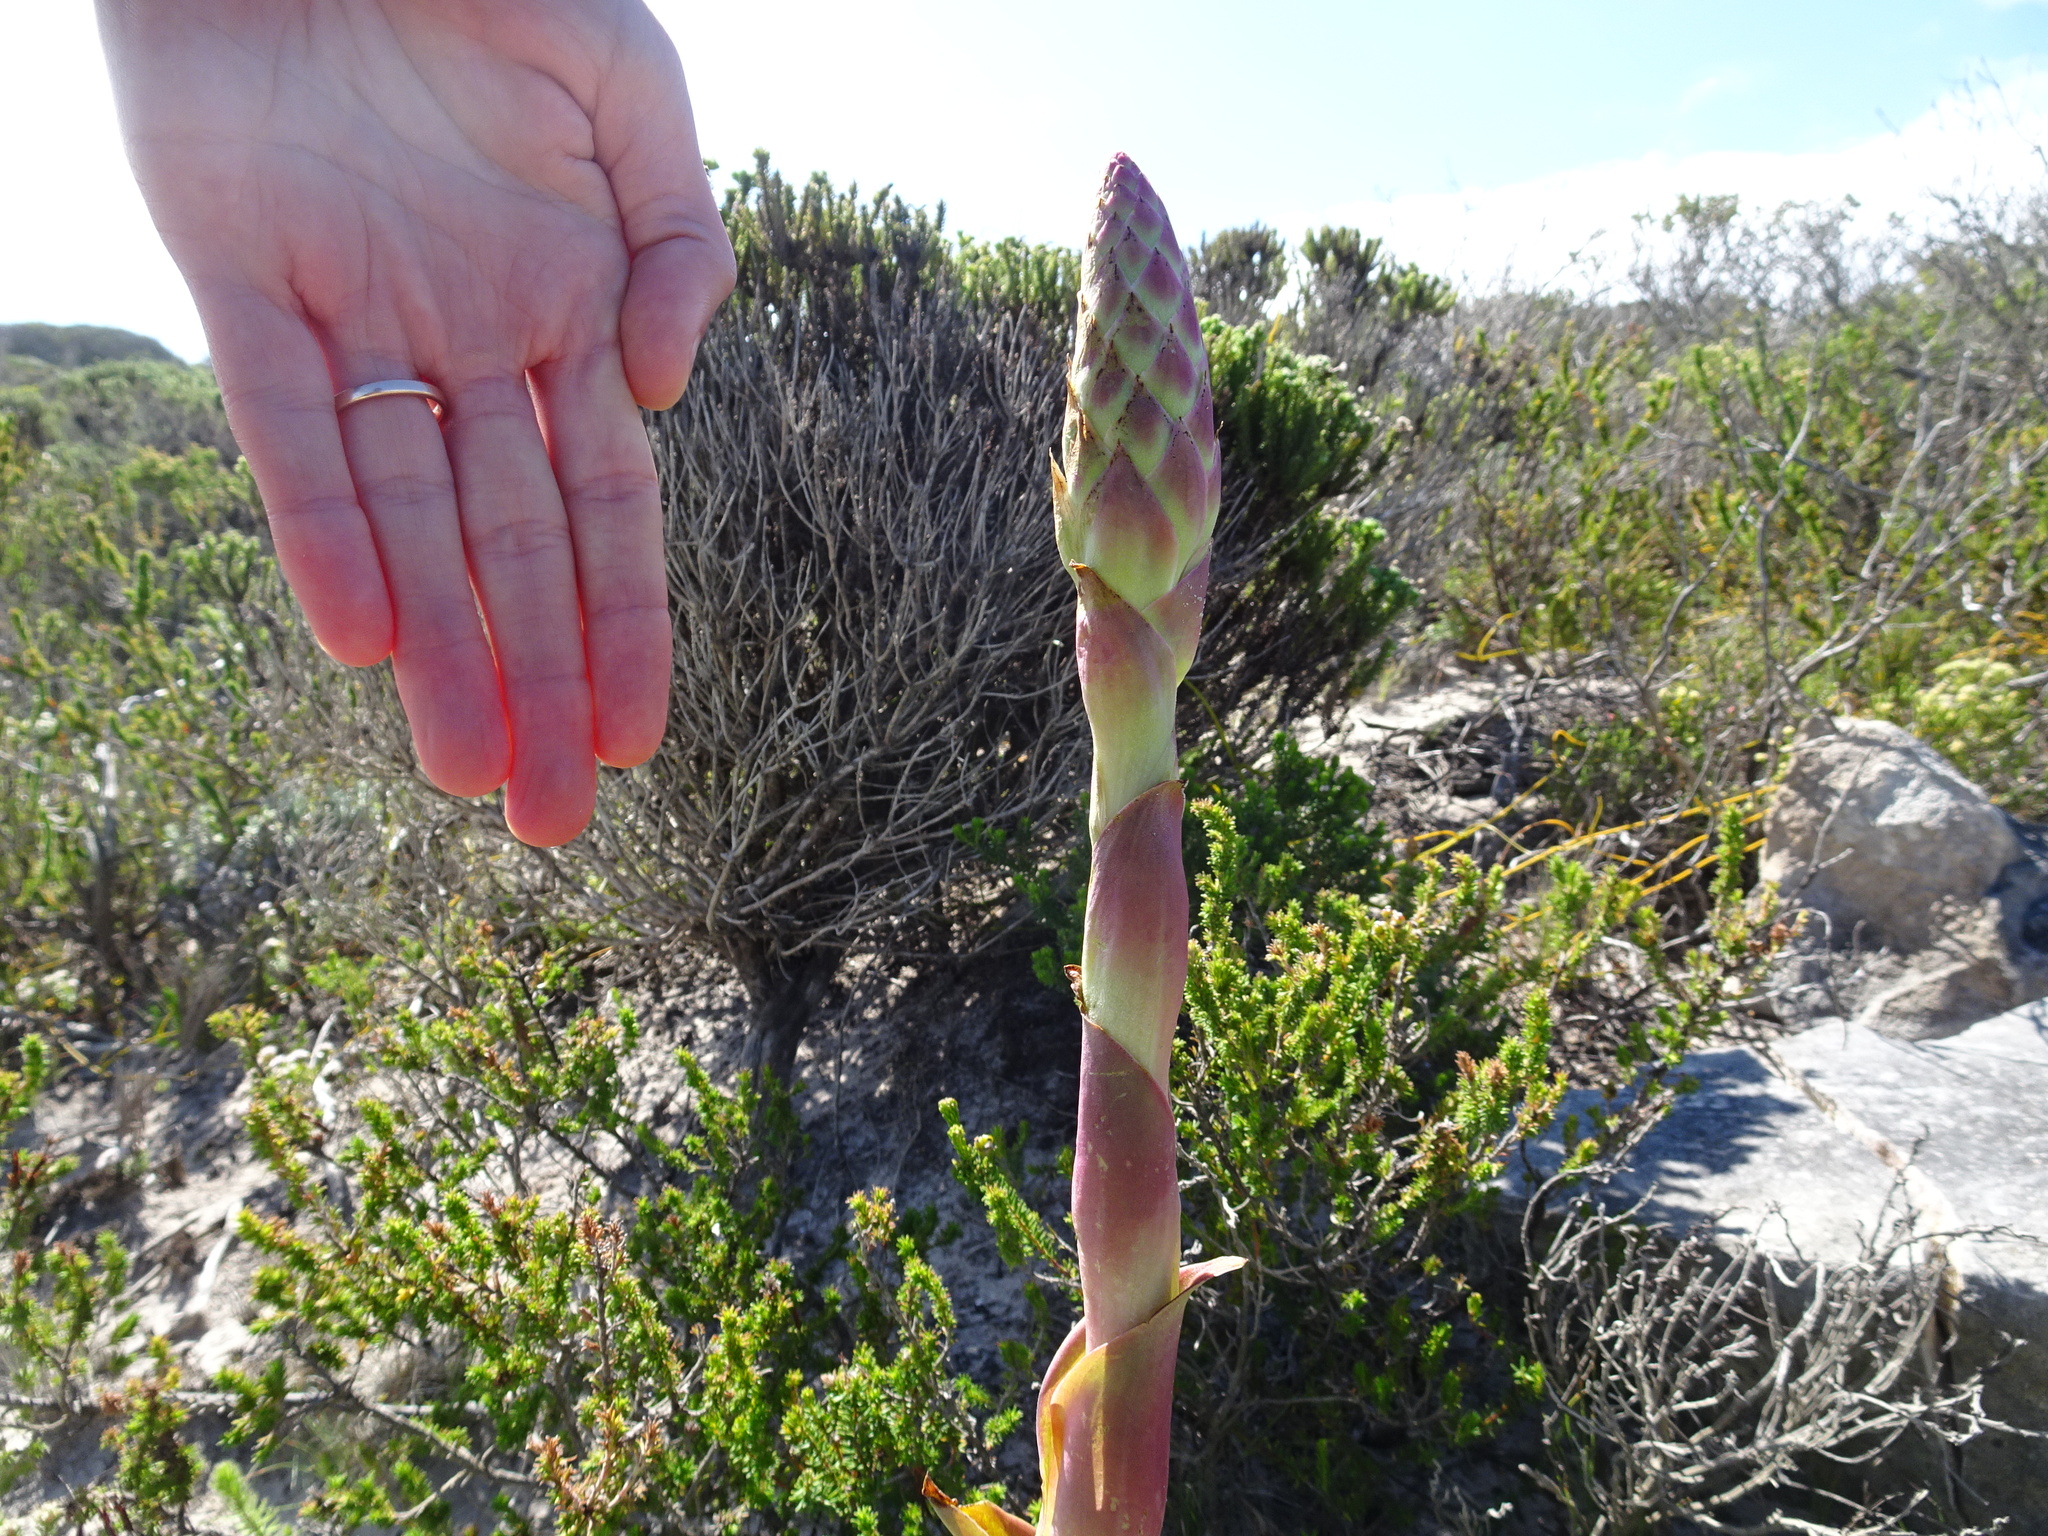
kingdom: Plantae
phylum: Tracheophyta
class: Liliopsida
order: Asparagales
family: Orchidaceae
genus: Satyrium
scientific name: Satyrium carneum
